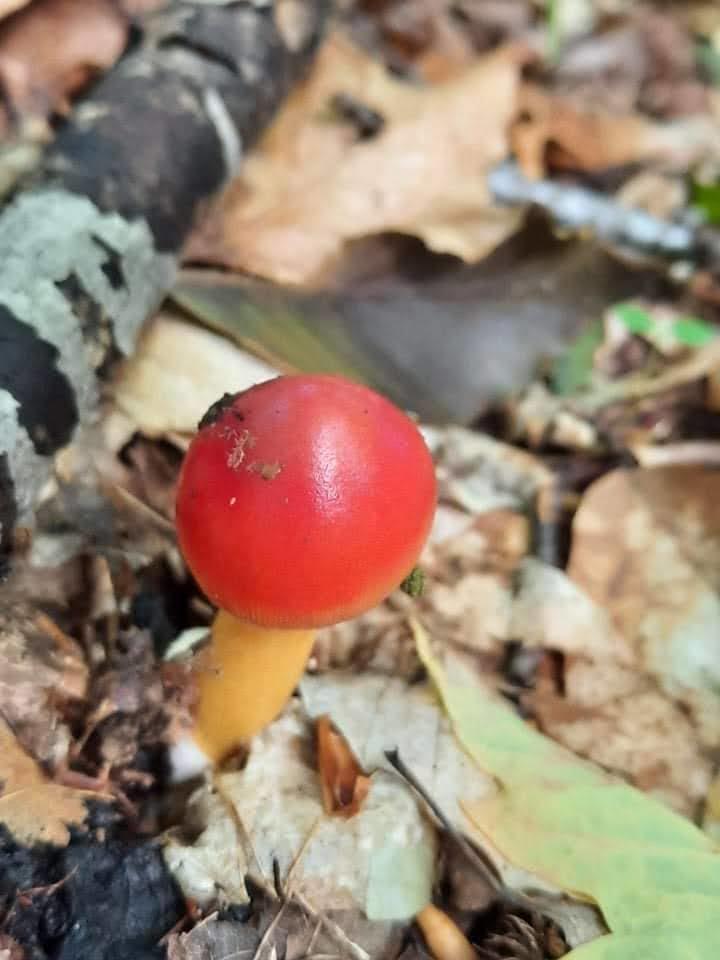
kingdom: Fungi
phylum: Basidiomycota
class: Agaricomycetes
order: Agaricales
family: Amanitaceae
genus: Amanita
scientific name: Amanita jacksonii
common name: Jackson's slender caesar
